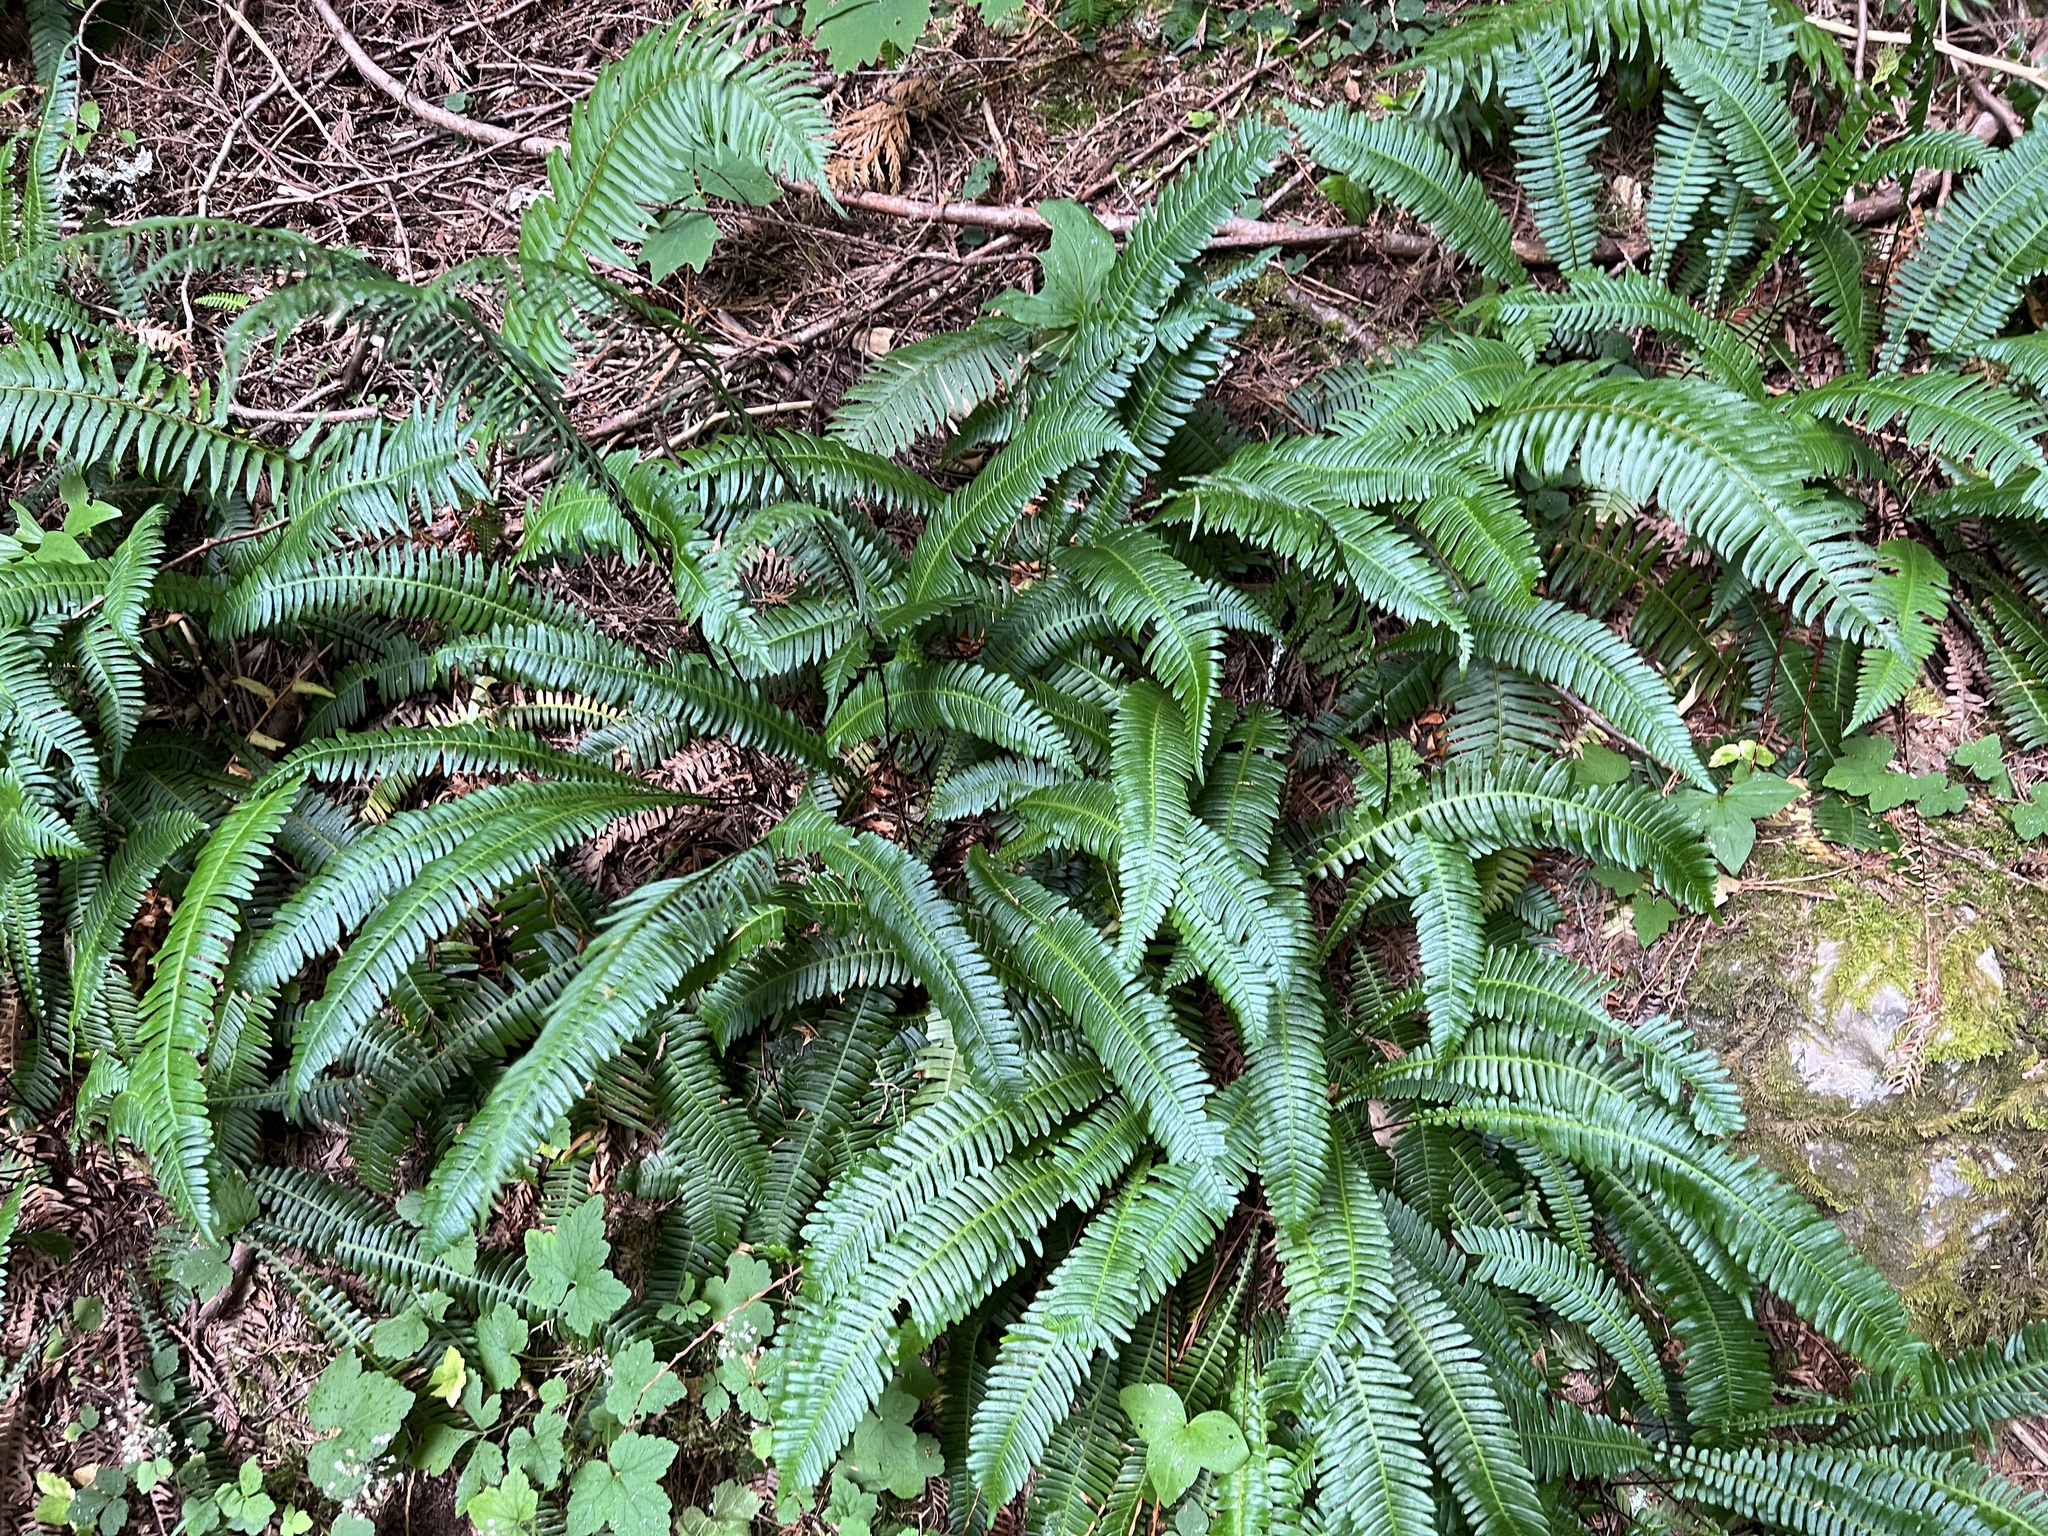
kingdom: Plantae
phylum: Tracheophyta
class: Polypodiopsida
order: Polypodiales
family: Blechnaceae
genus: Struthiopteris
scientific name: Struthiopteris spicant
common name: Deer fern
